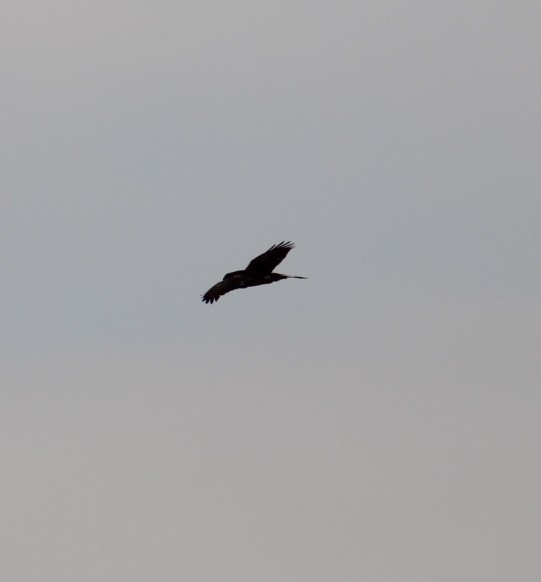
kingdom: Animalia
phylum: Chordata
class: Aves
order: Accipitriformes
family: Accipitridae
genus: Circus
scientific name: Circus cyaneus
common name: Hen harrier
